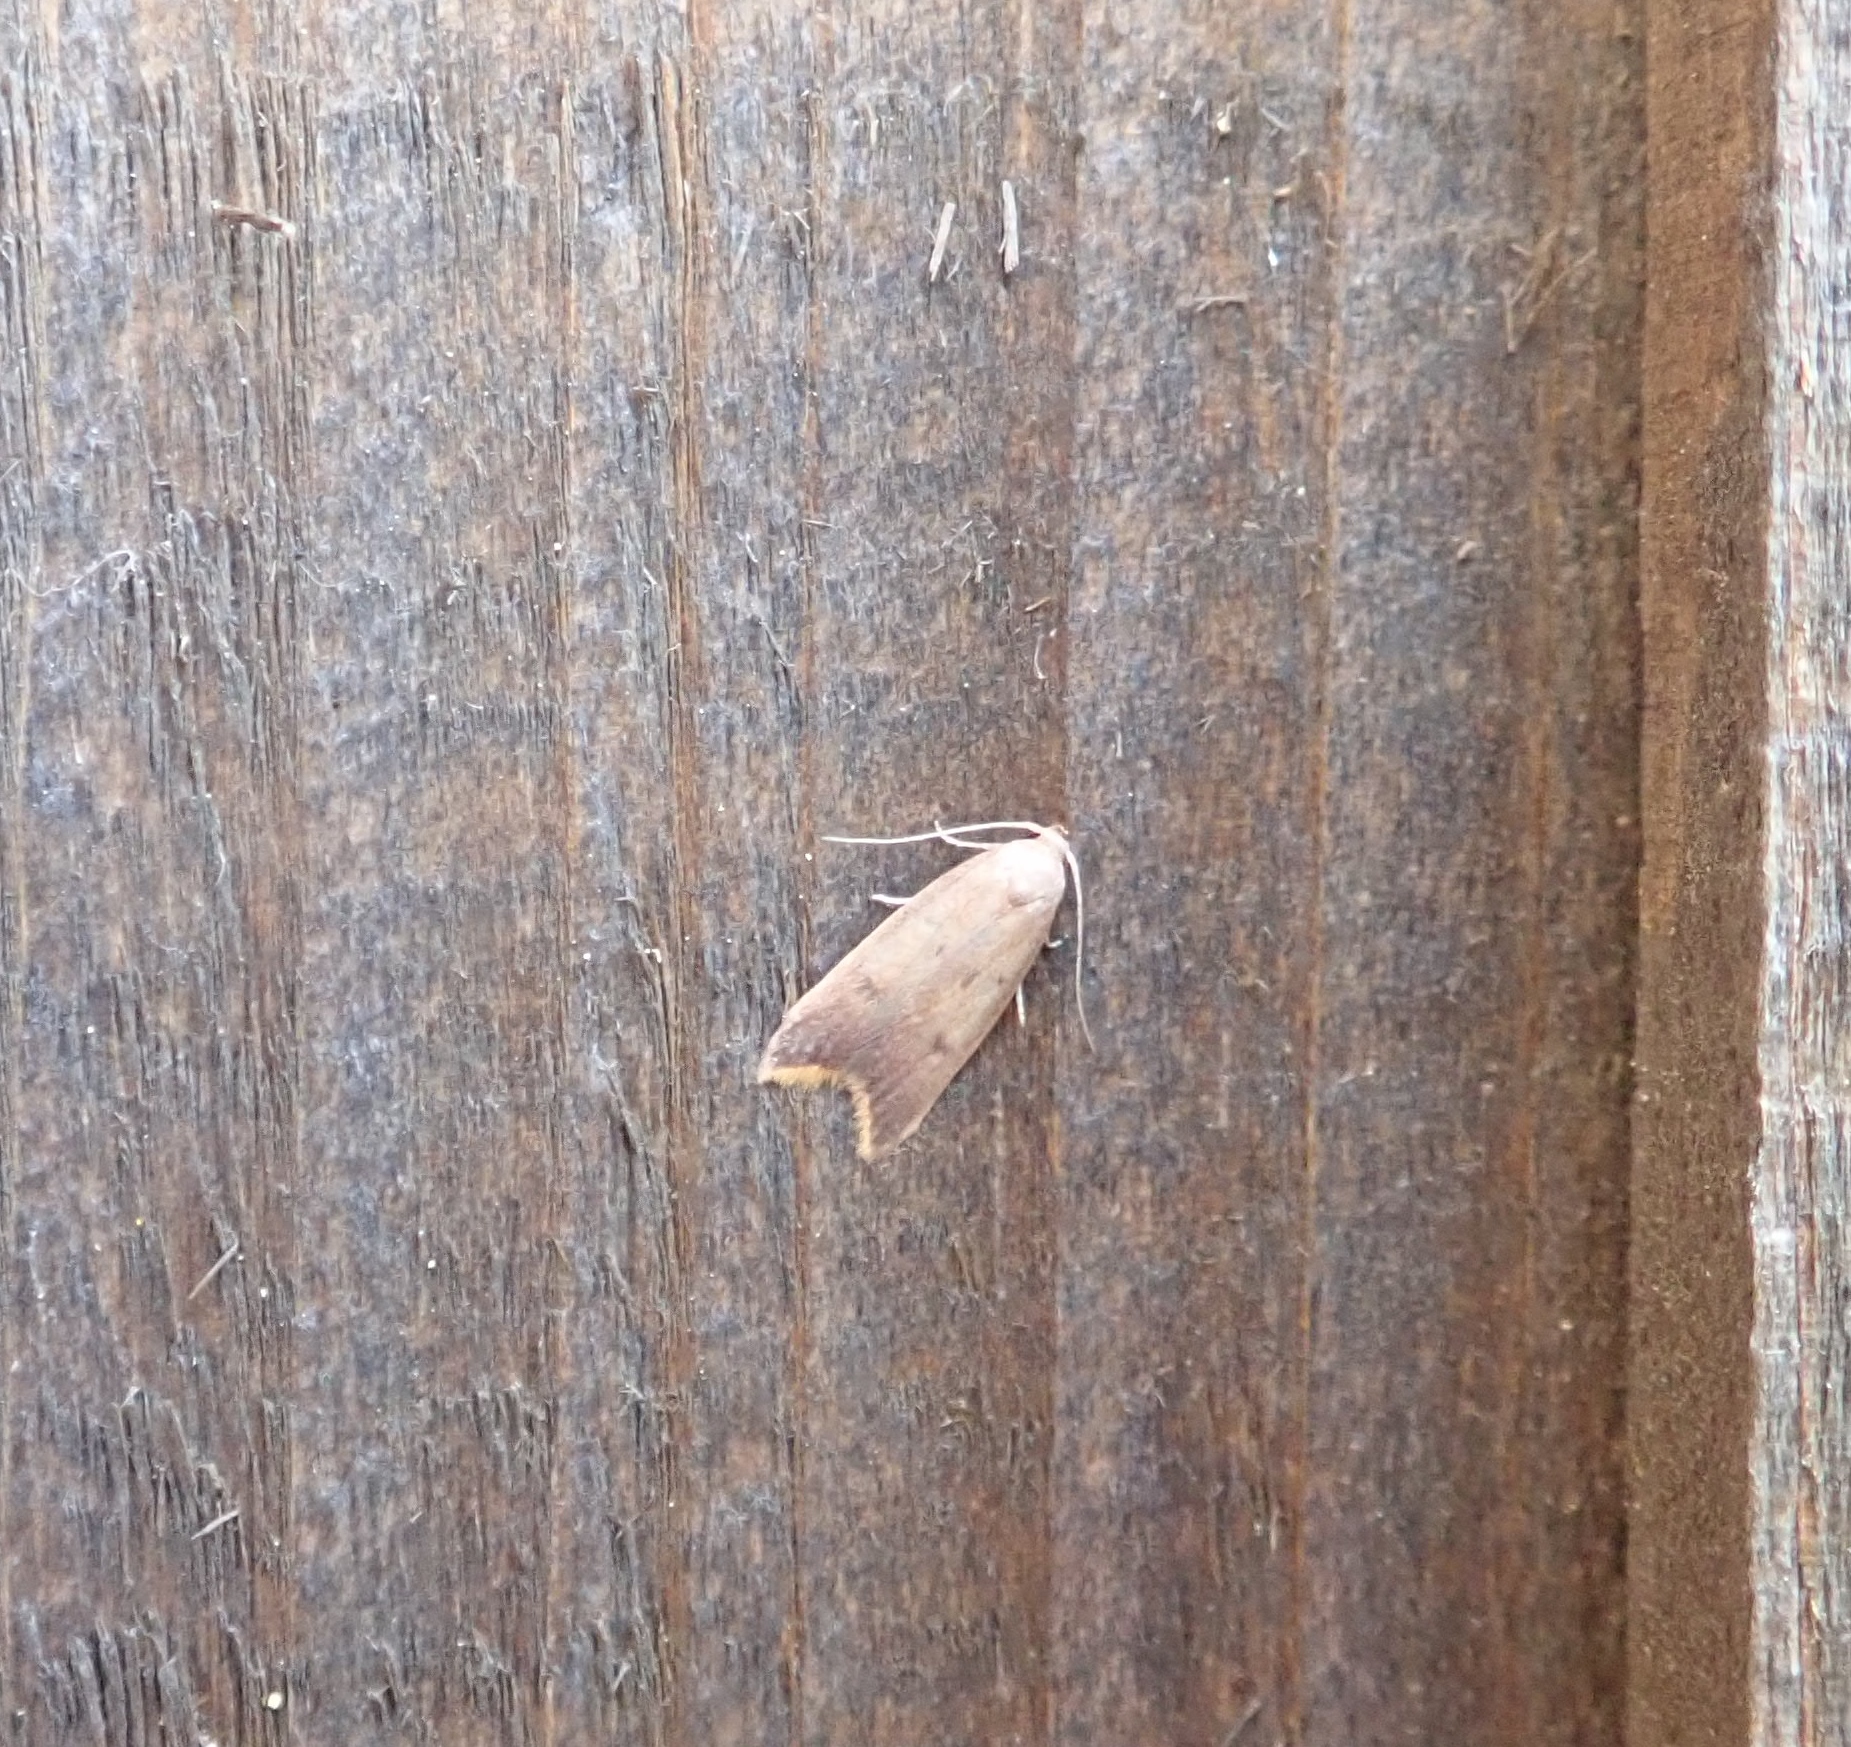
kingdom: Animalia
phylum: Arthropoda
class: Insecta
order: Lepidoptera
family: Oecophoridae
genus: Tachystola
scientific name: Tachystola acroxantha
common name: Ruddy streak
